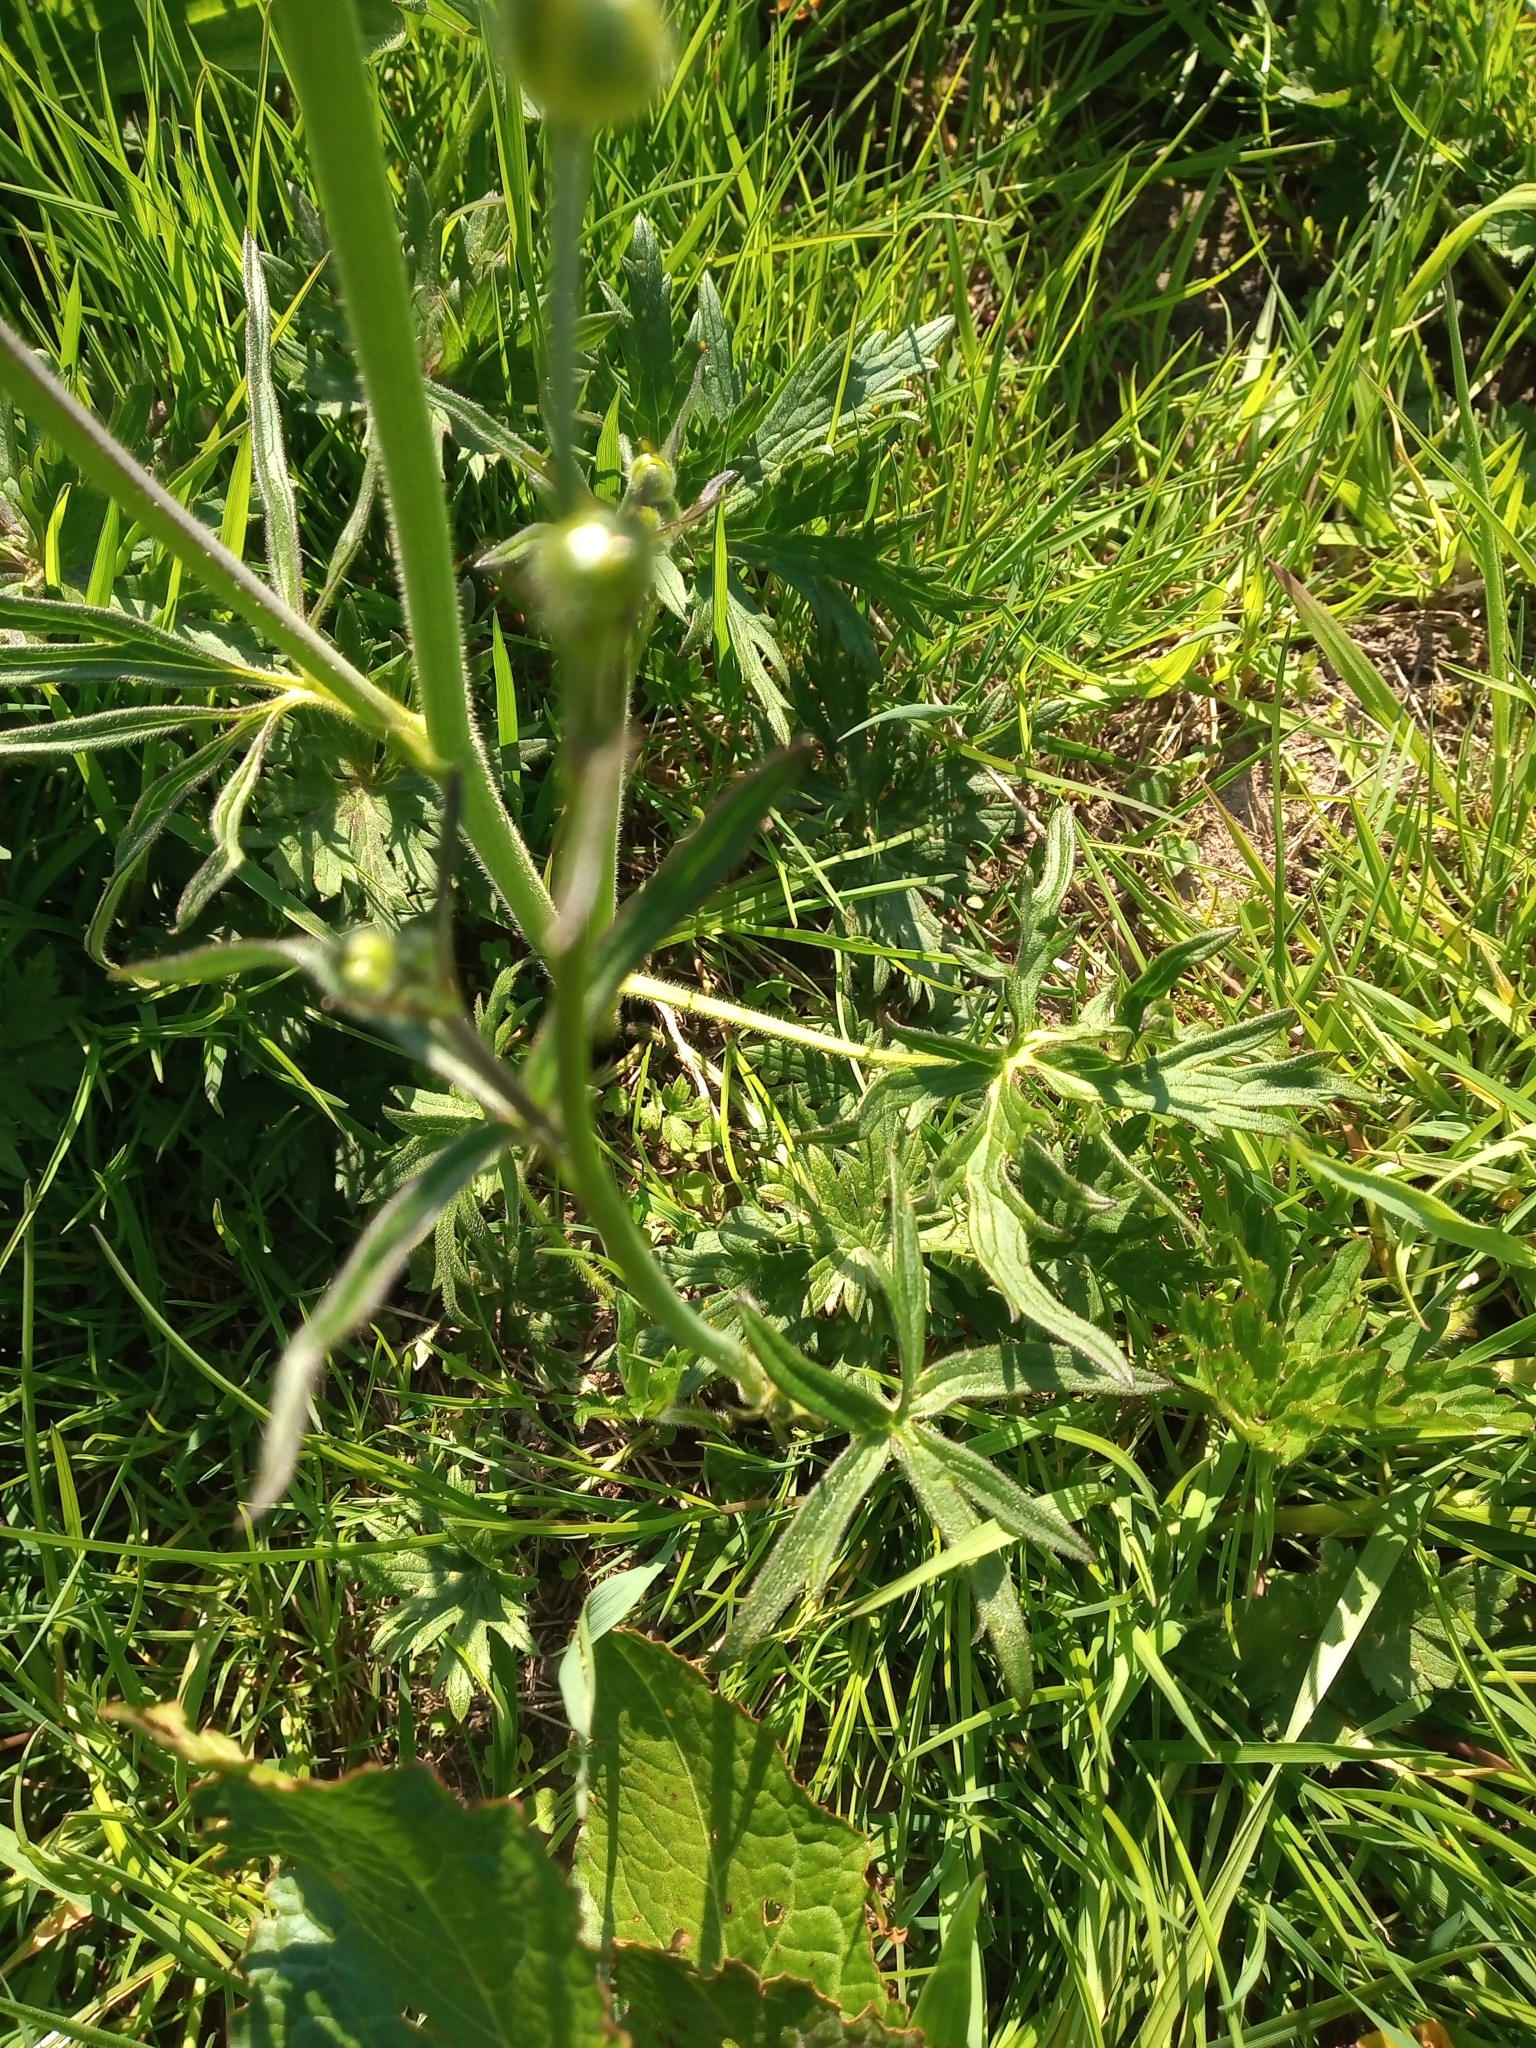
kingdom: Plantae
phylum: Tracheophyta
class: Magnoliopsida
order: Ranunculales
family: Ranunculaceae
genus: Ranunculus
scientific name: Ranunculus acris
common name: Meadow buttercup
